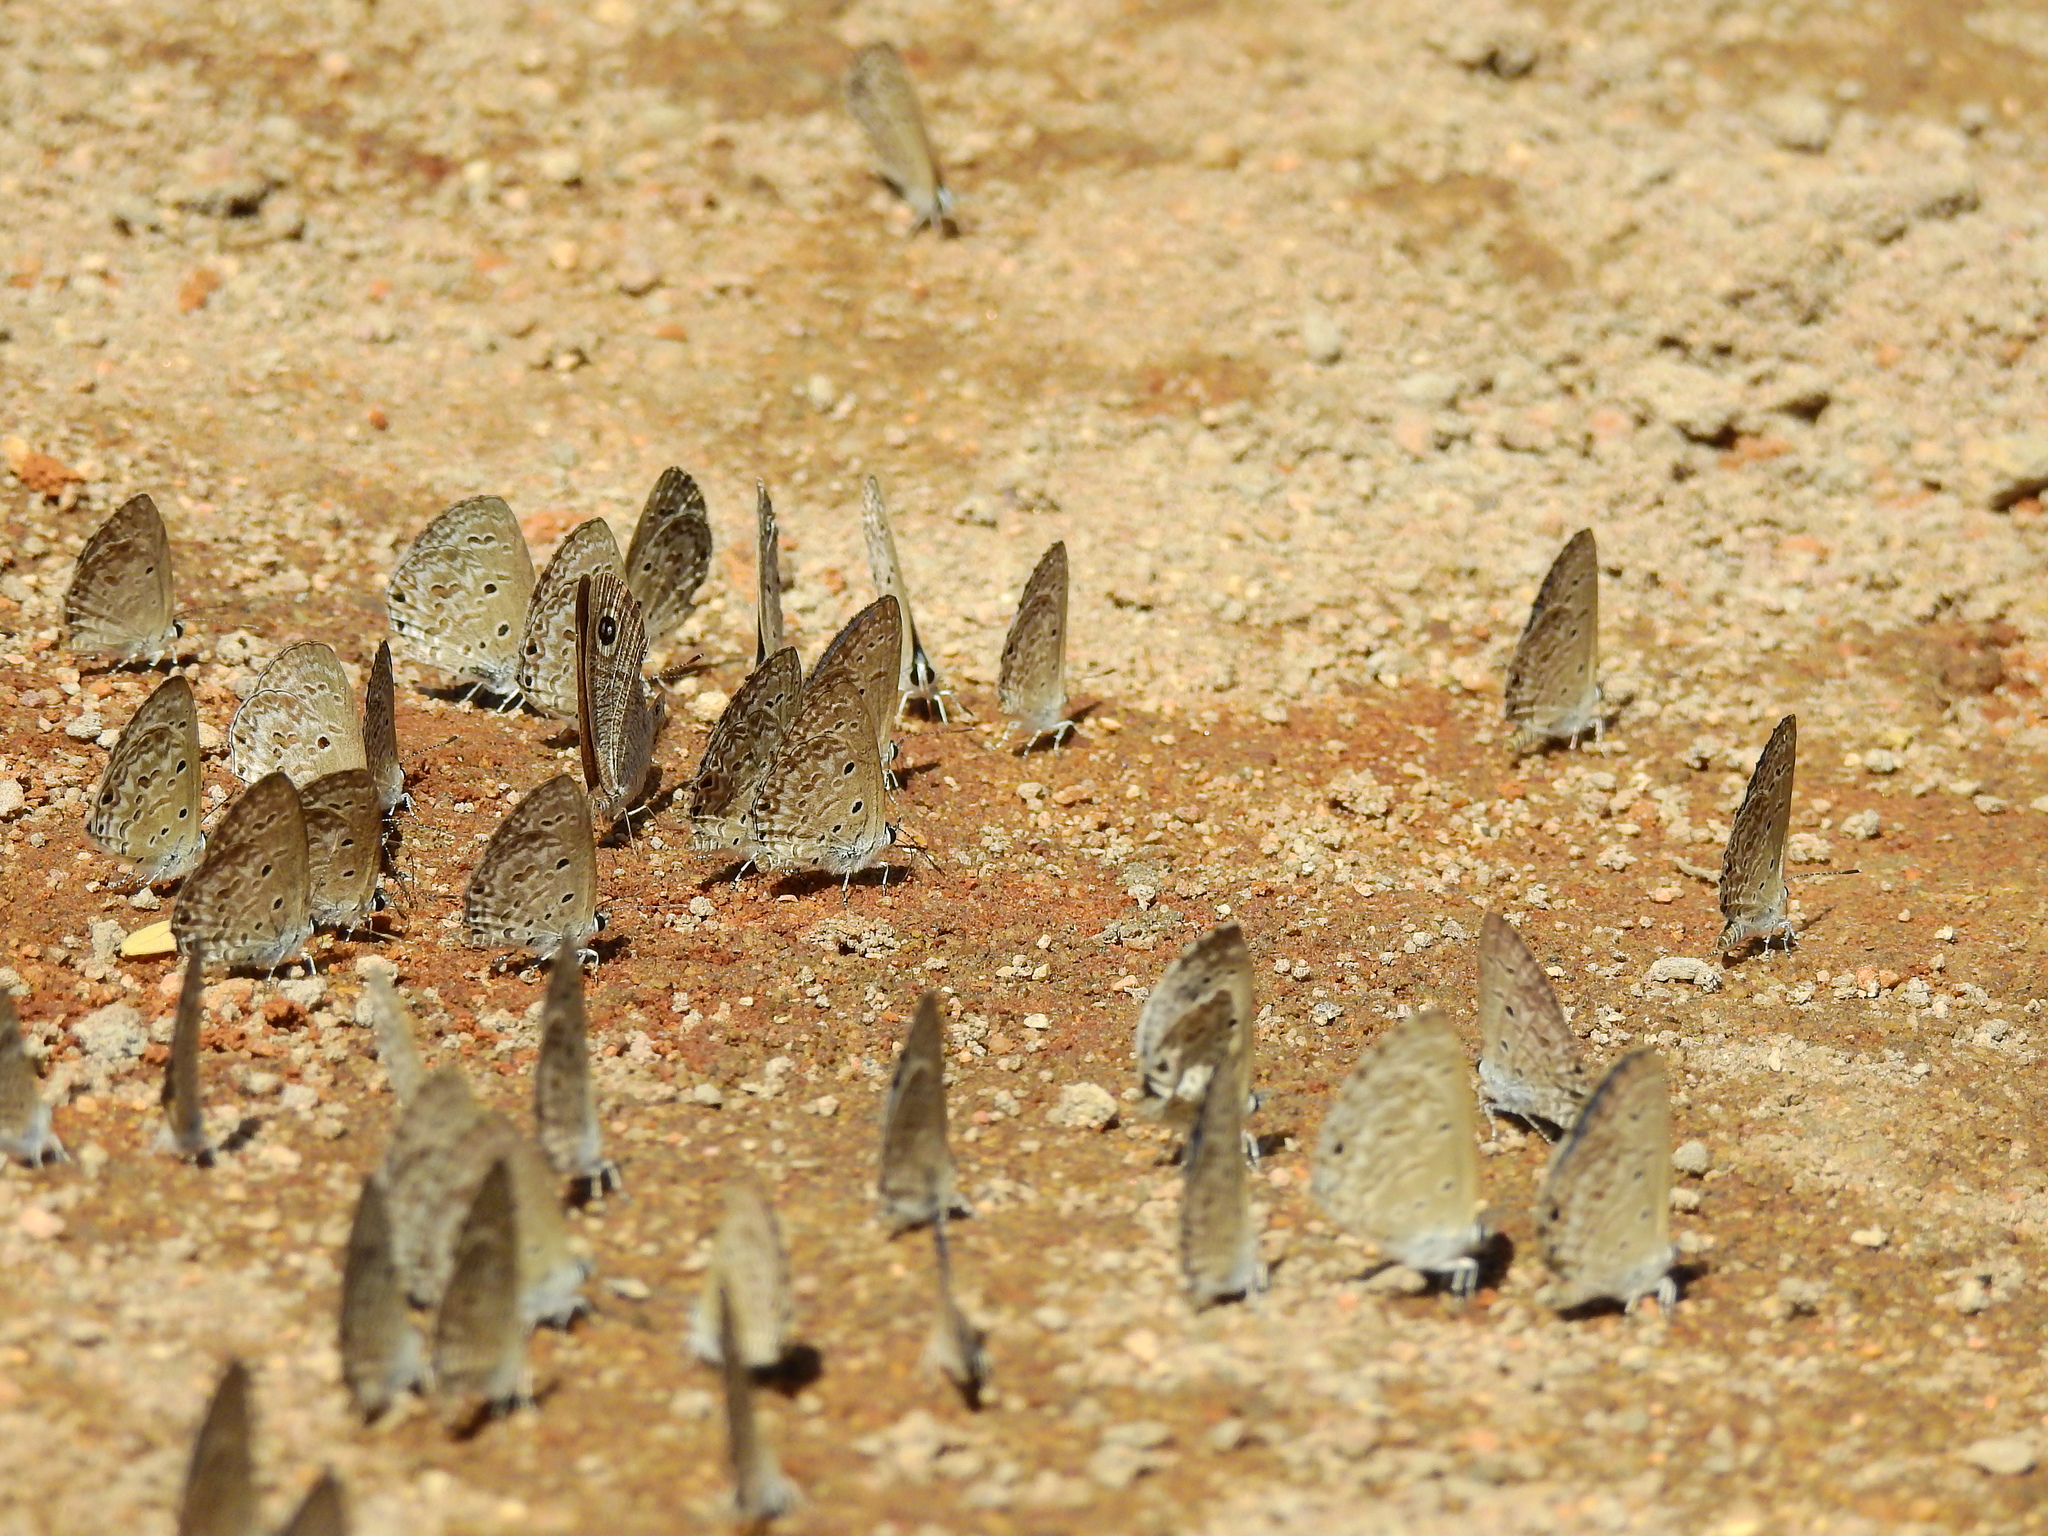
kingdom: Animalia
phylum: Arthropoda
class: Insecta
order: Lepidoptera
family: Lycaenidae
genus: Chilades
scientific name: Chilades laius
